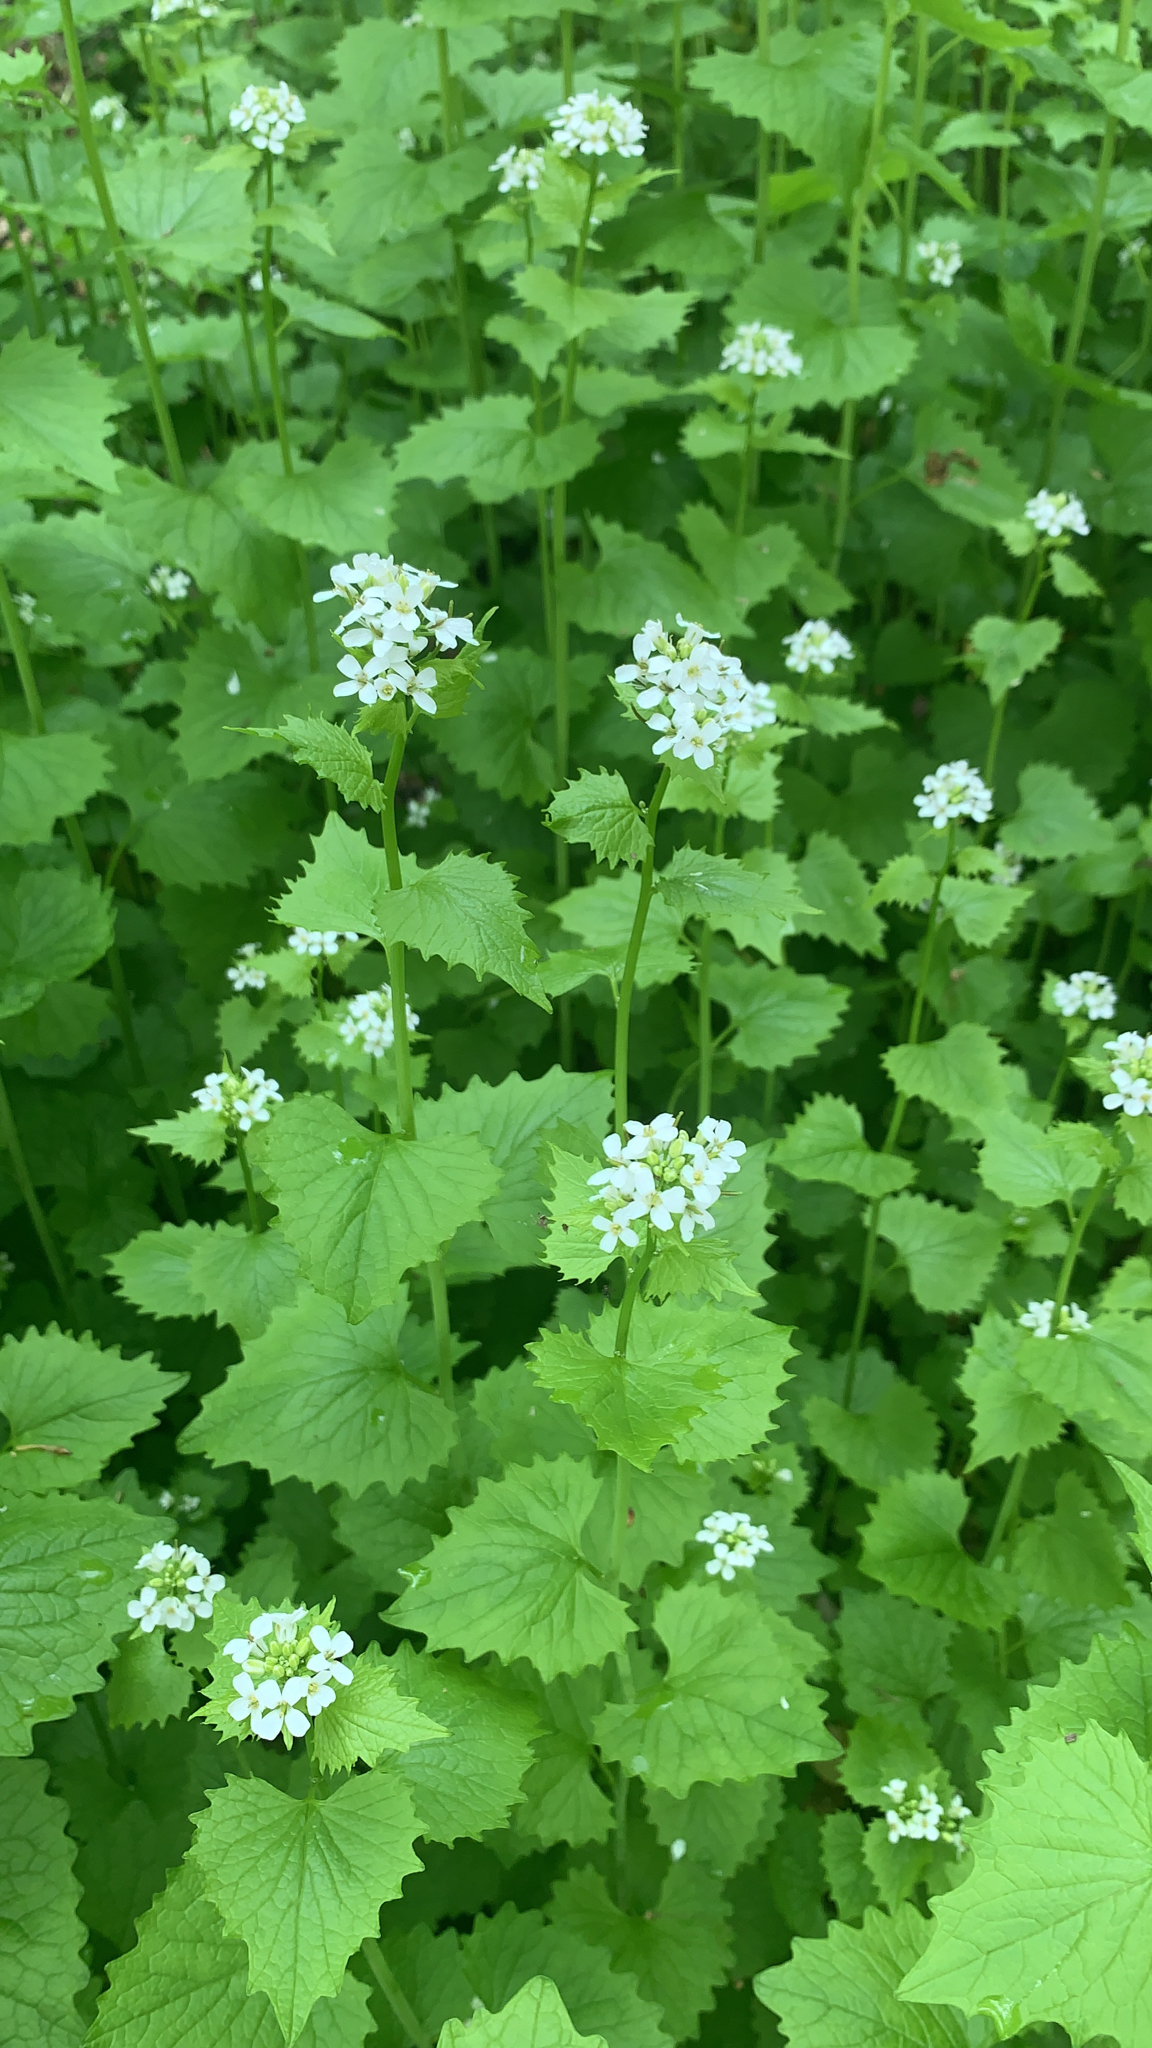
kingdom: Plantae
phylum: Tracheophyta
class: Magnoliopsida
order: Brassicales
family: Brassicaceae
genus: Alliaria
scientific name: Alliaria petiolata
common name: Garlic mustard
